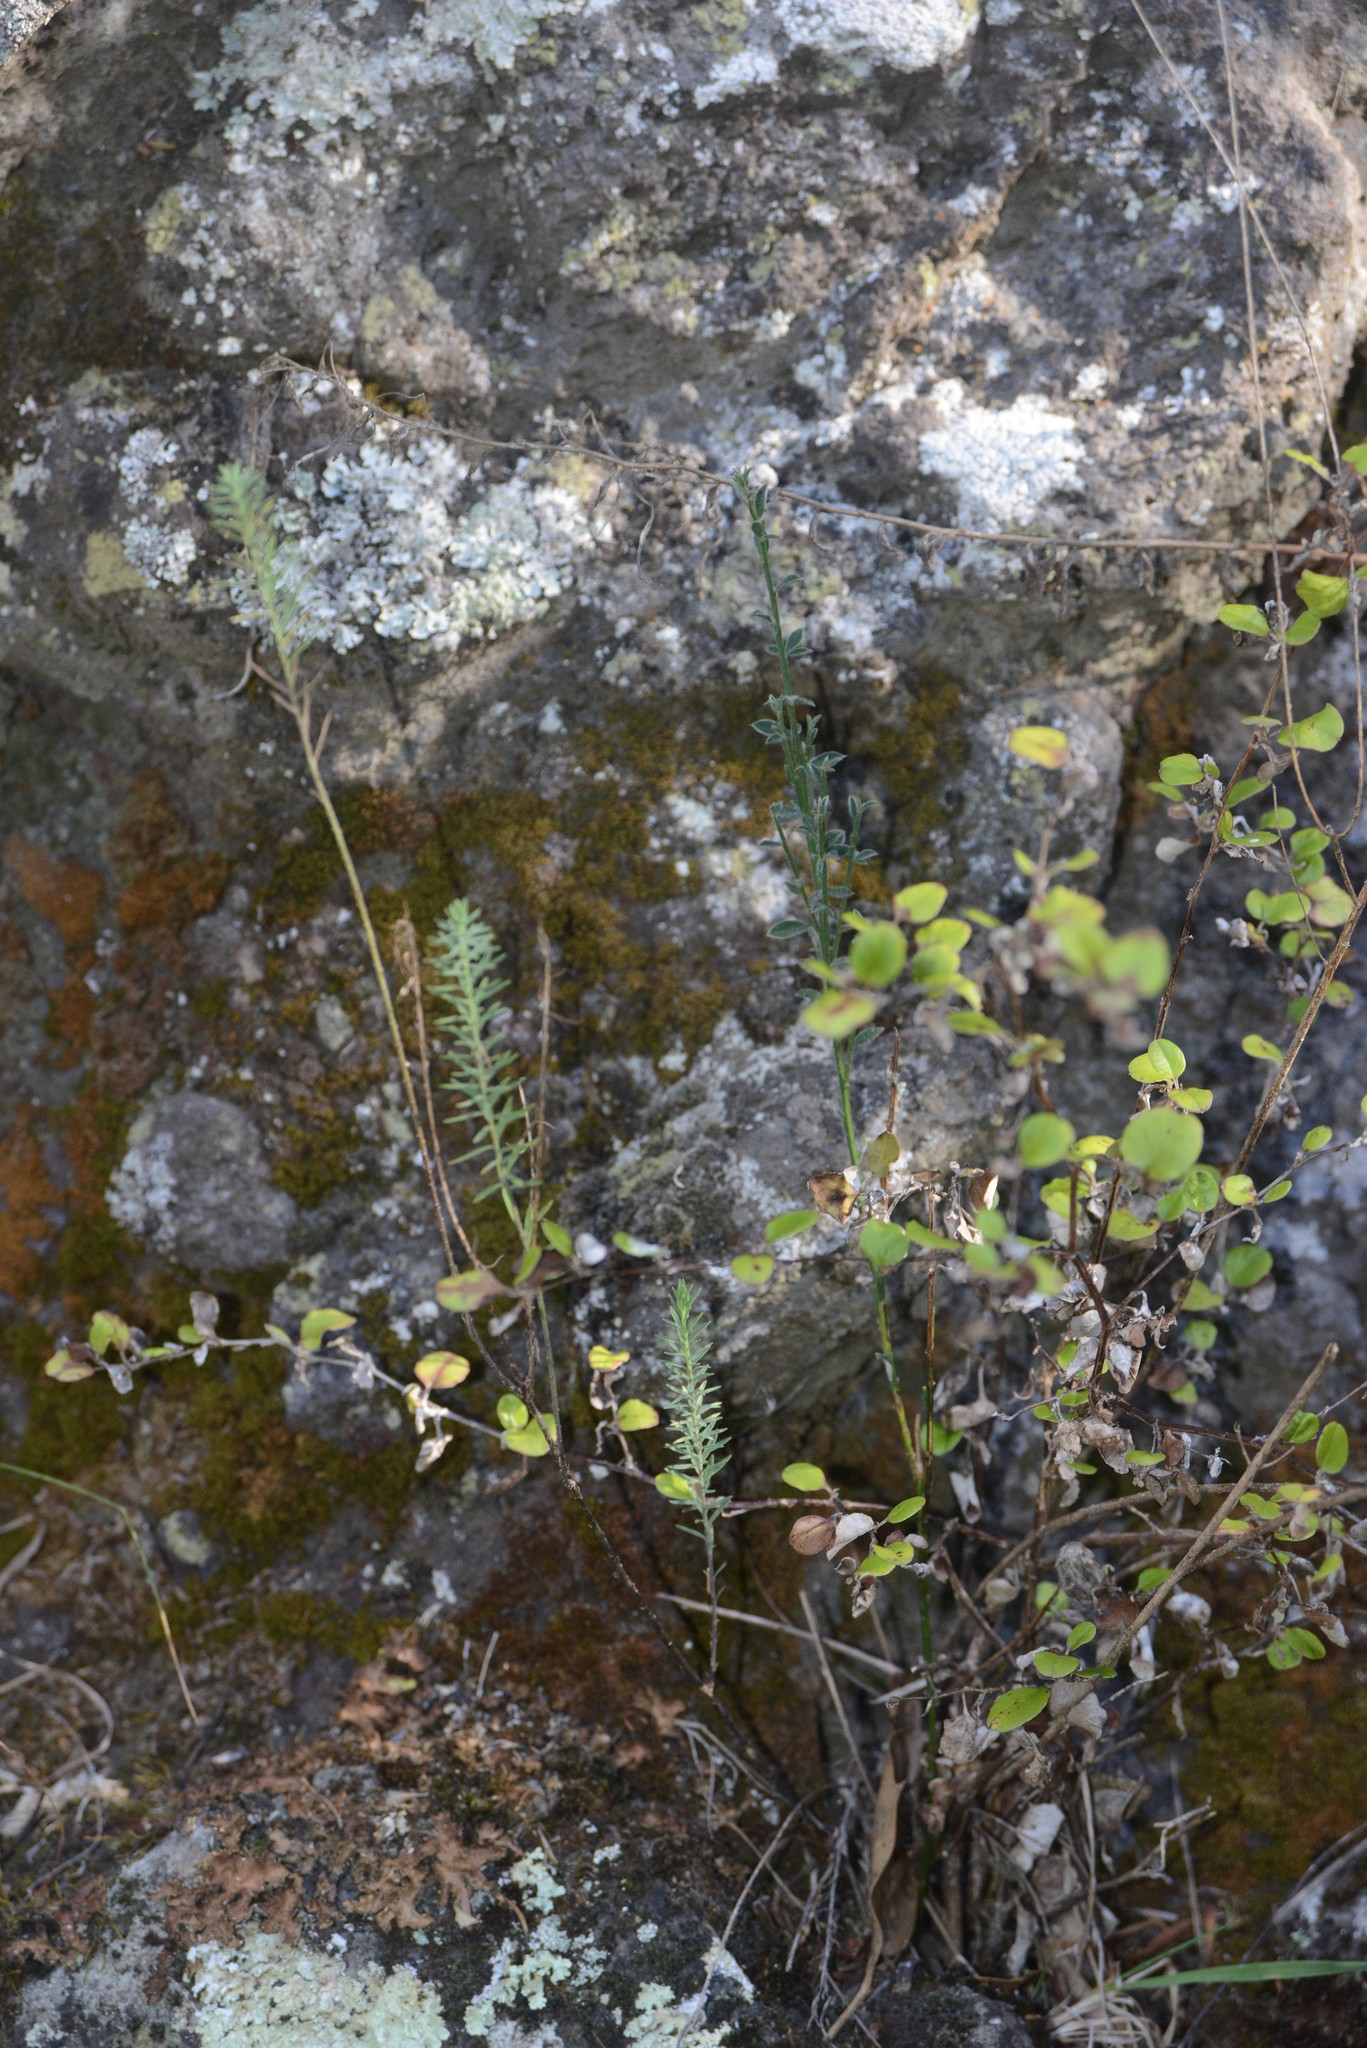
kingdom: Plantae
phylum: Tracheophyta
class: Magnoliopsida
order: Asterales
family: Asteraceae
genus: Ozothamnus
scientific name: Ozothamnus glomeratus
